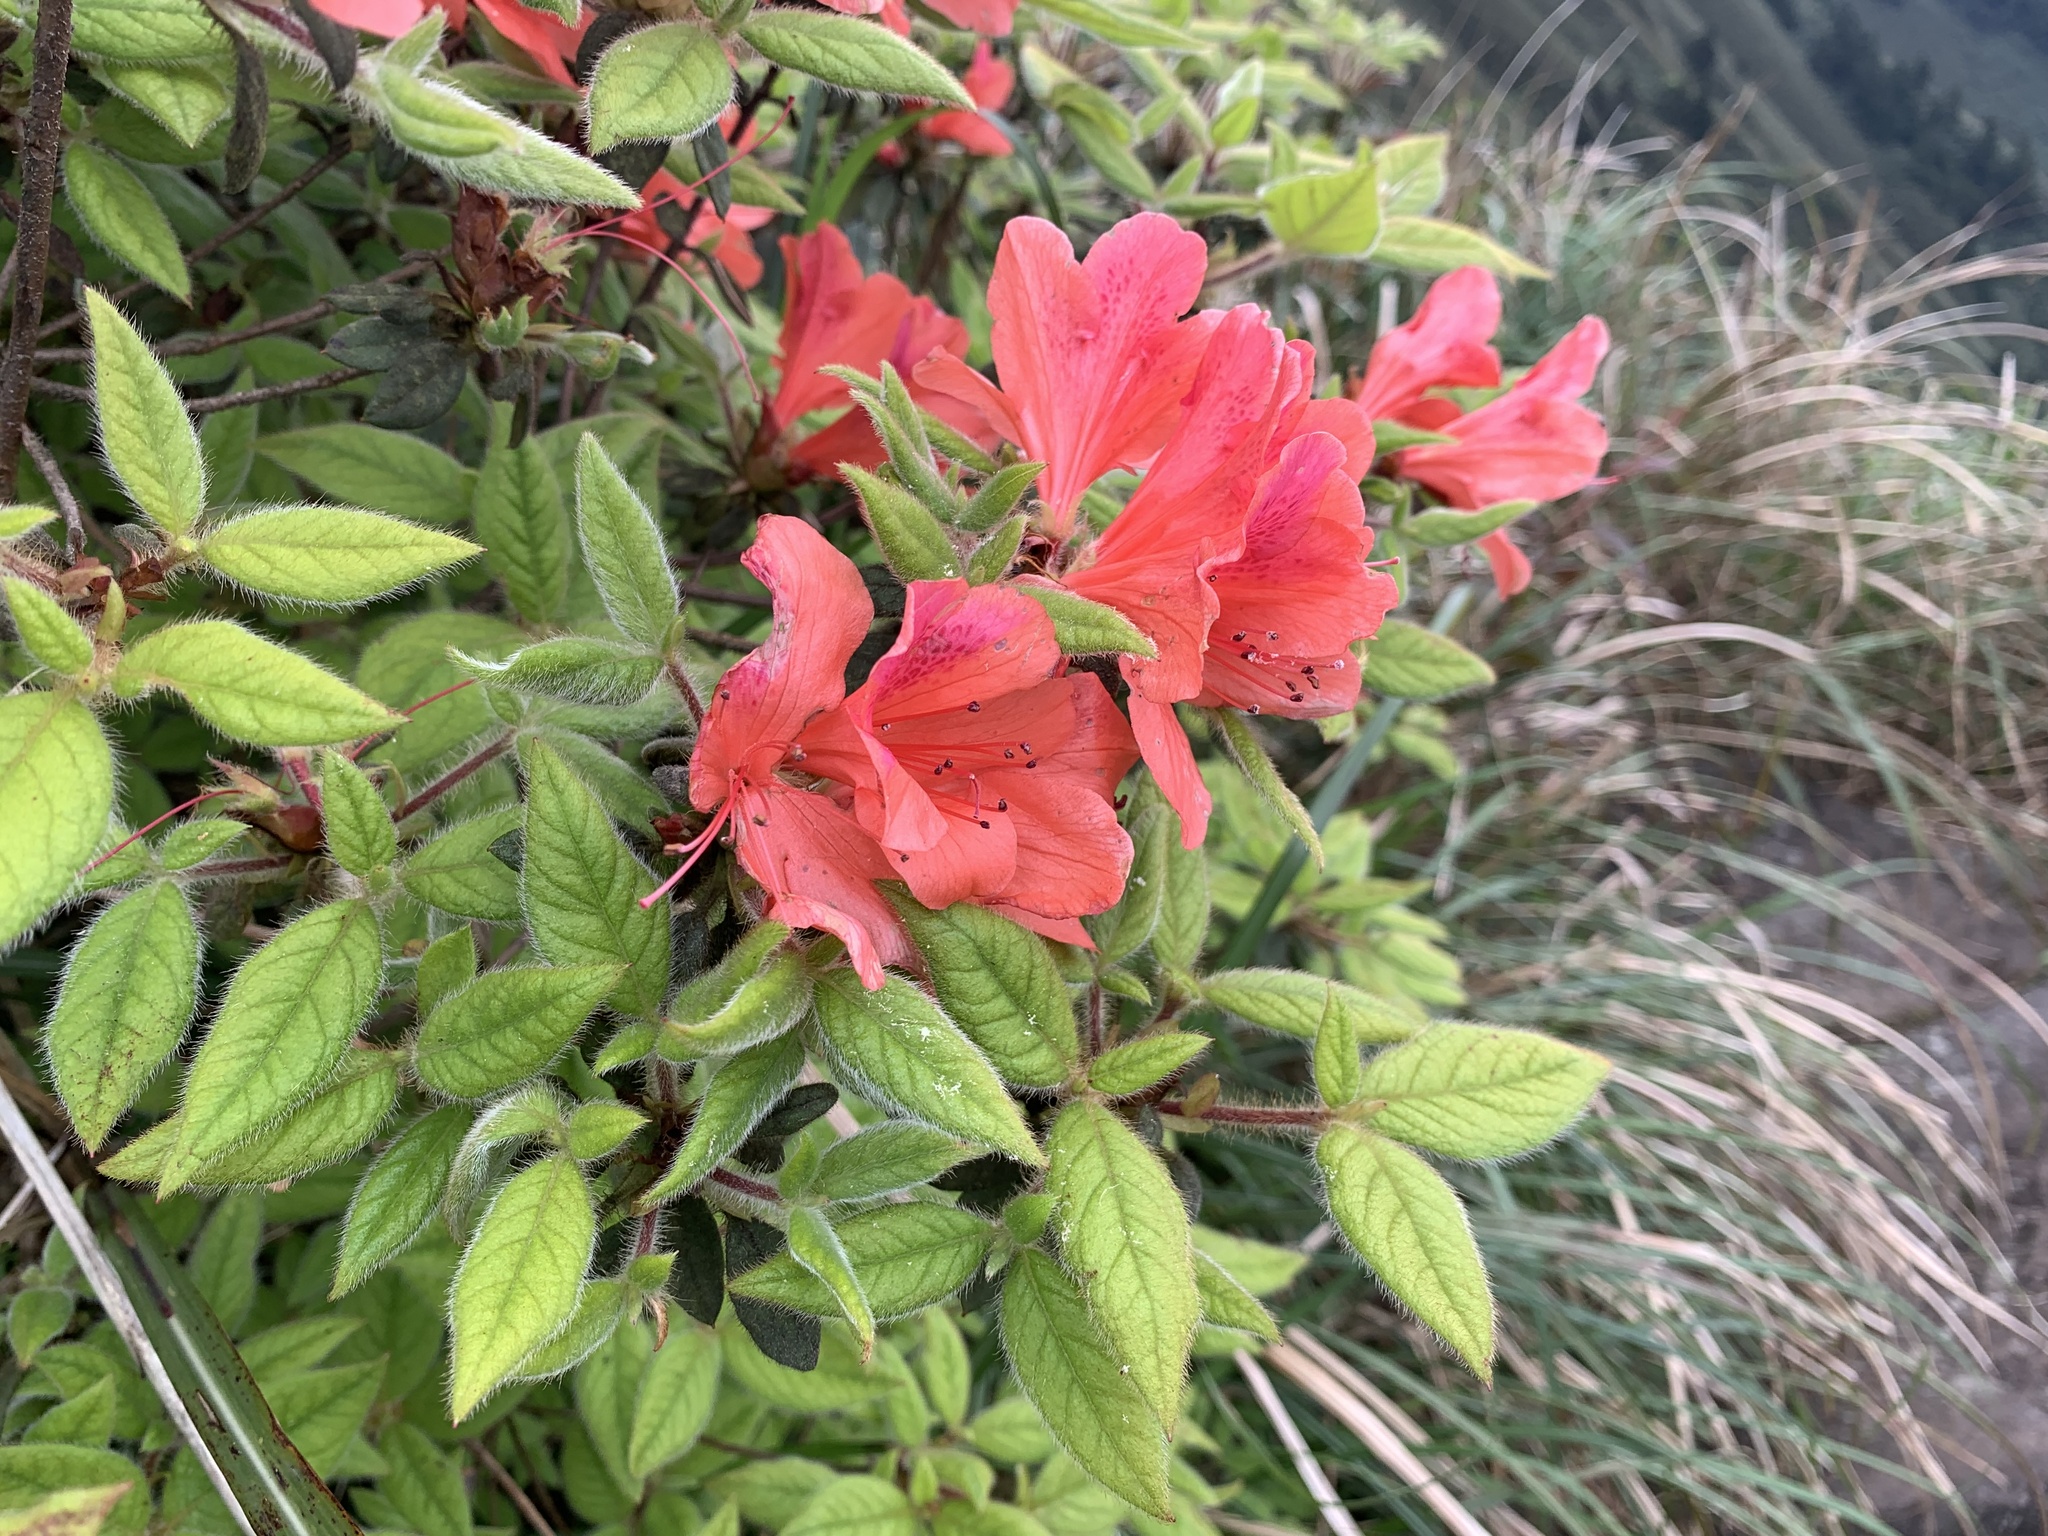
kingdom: Plantae
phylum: Tracheophyta
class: Magnoliopsida
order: Ericales
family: Ericaceae
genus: Rhododendron
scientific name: Rhododendron oldhamii
